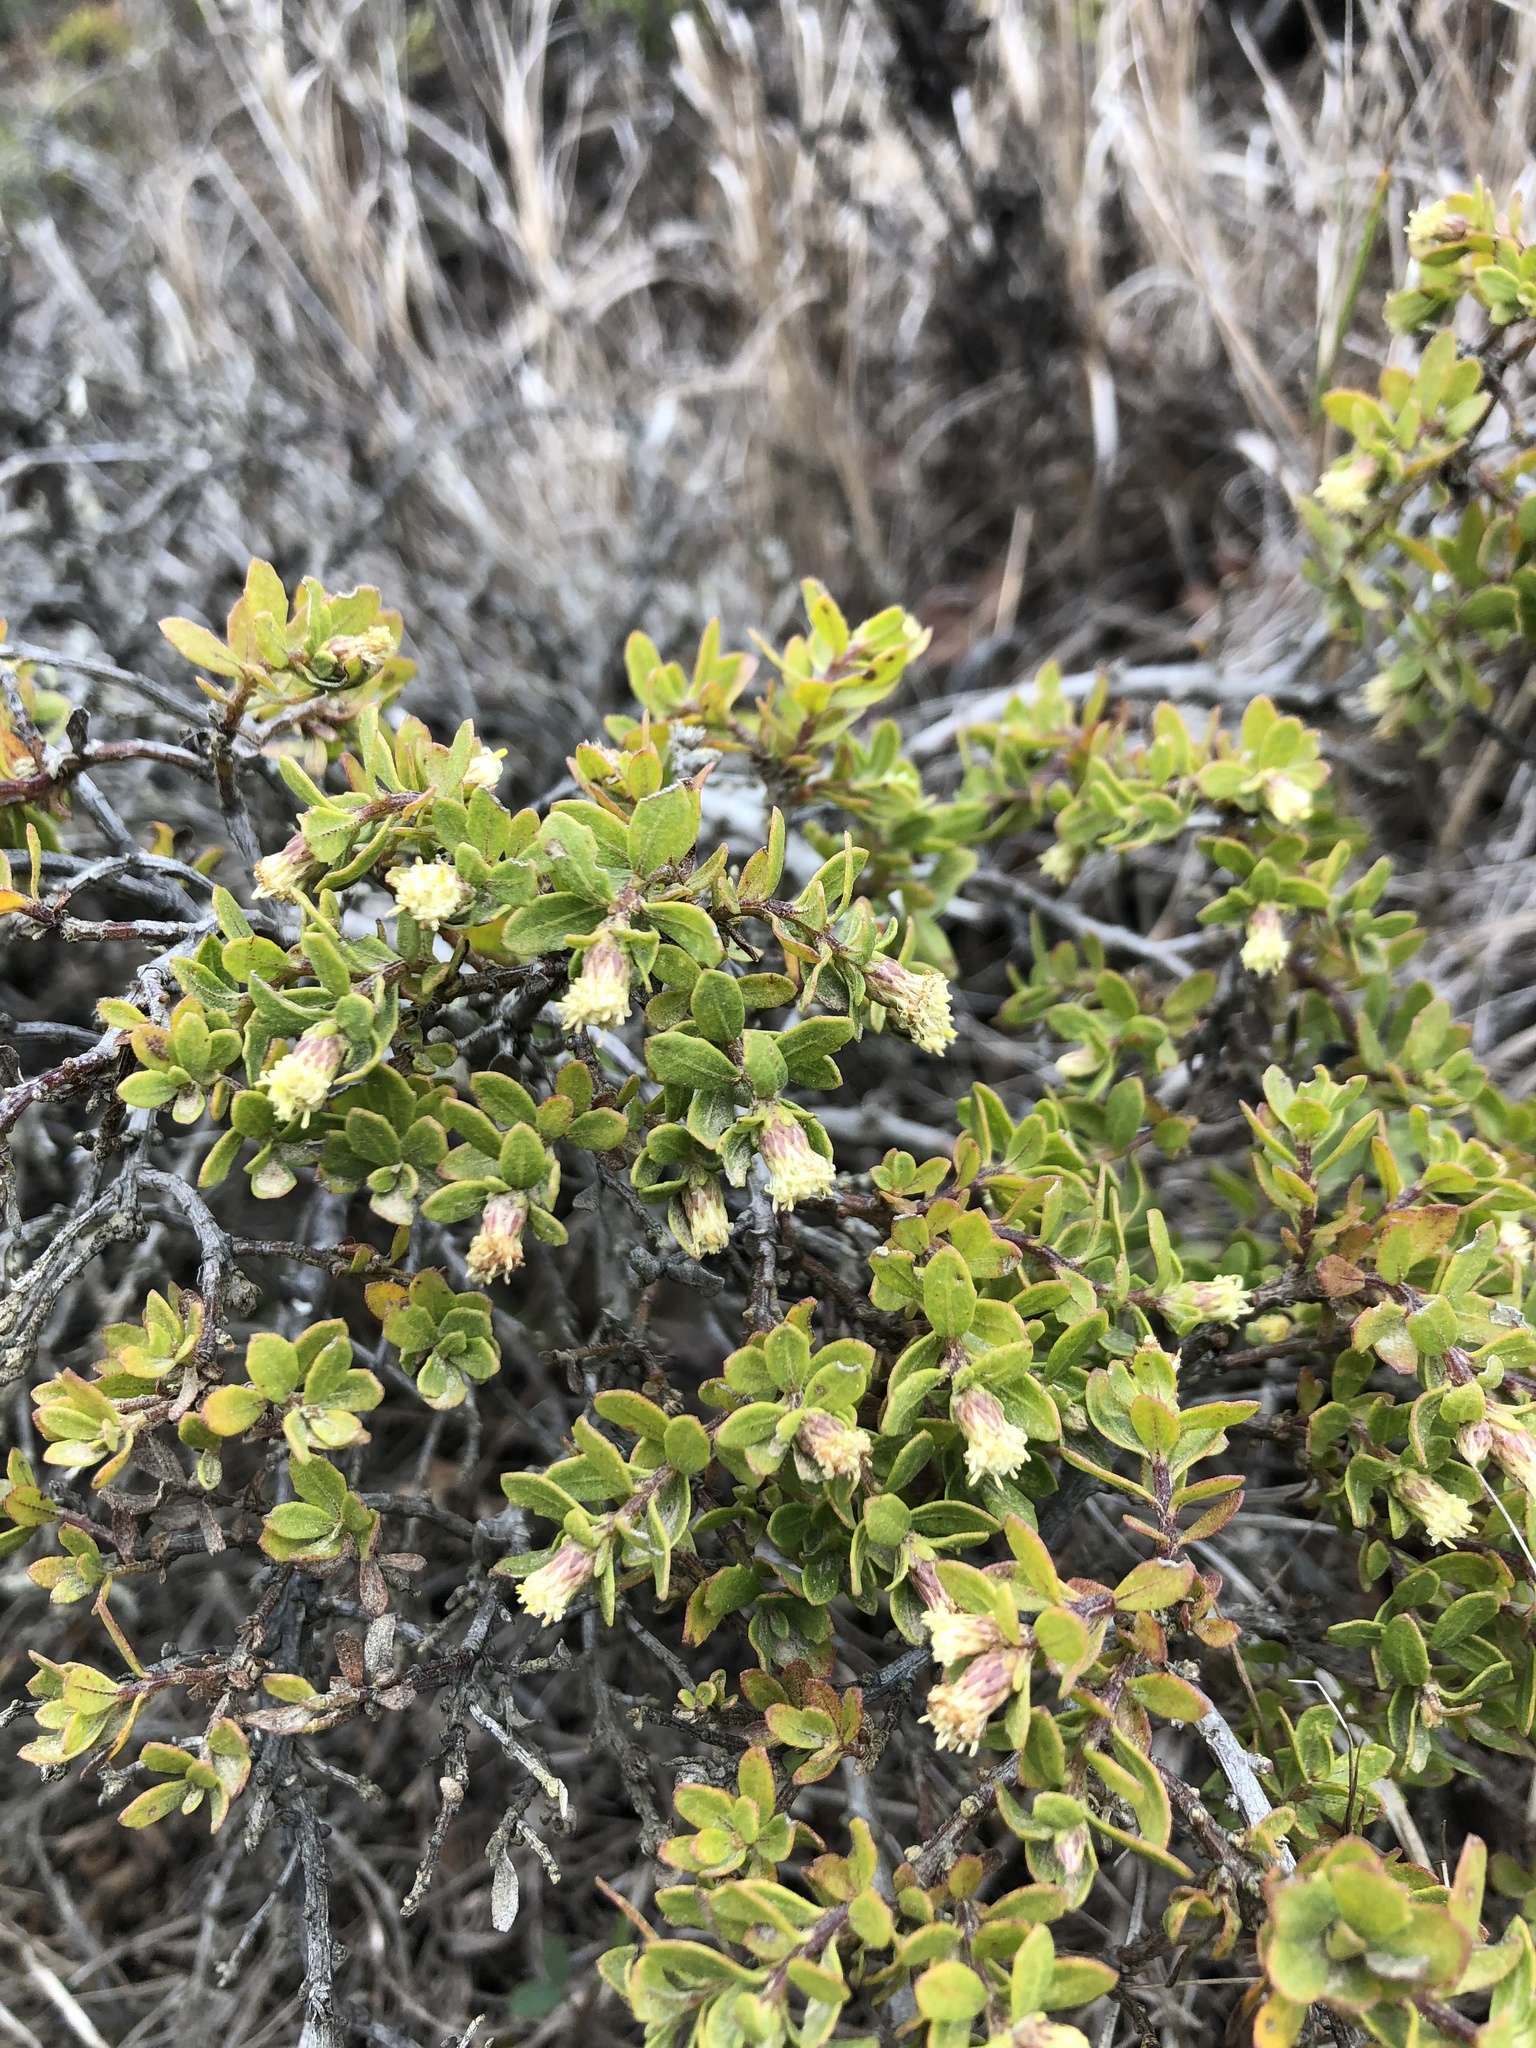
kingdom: Plantae
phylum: Tracheophyta
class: Magnoliopsida
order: Asterales
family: Asteraceae
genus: Baccharis
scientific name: Baccharis pilularis
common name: Coyotebrush
